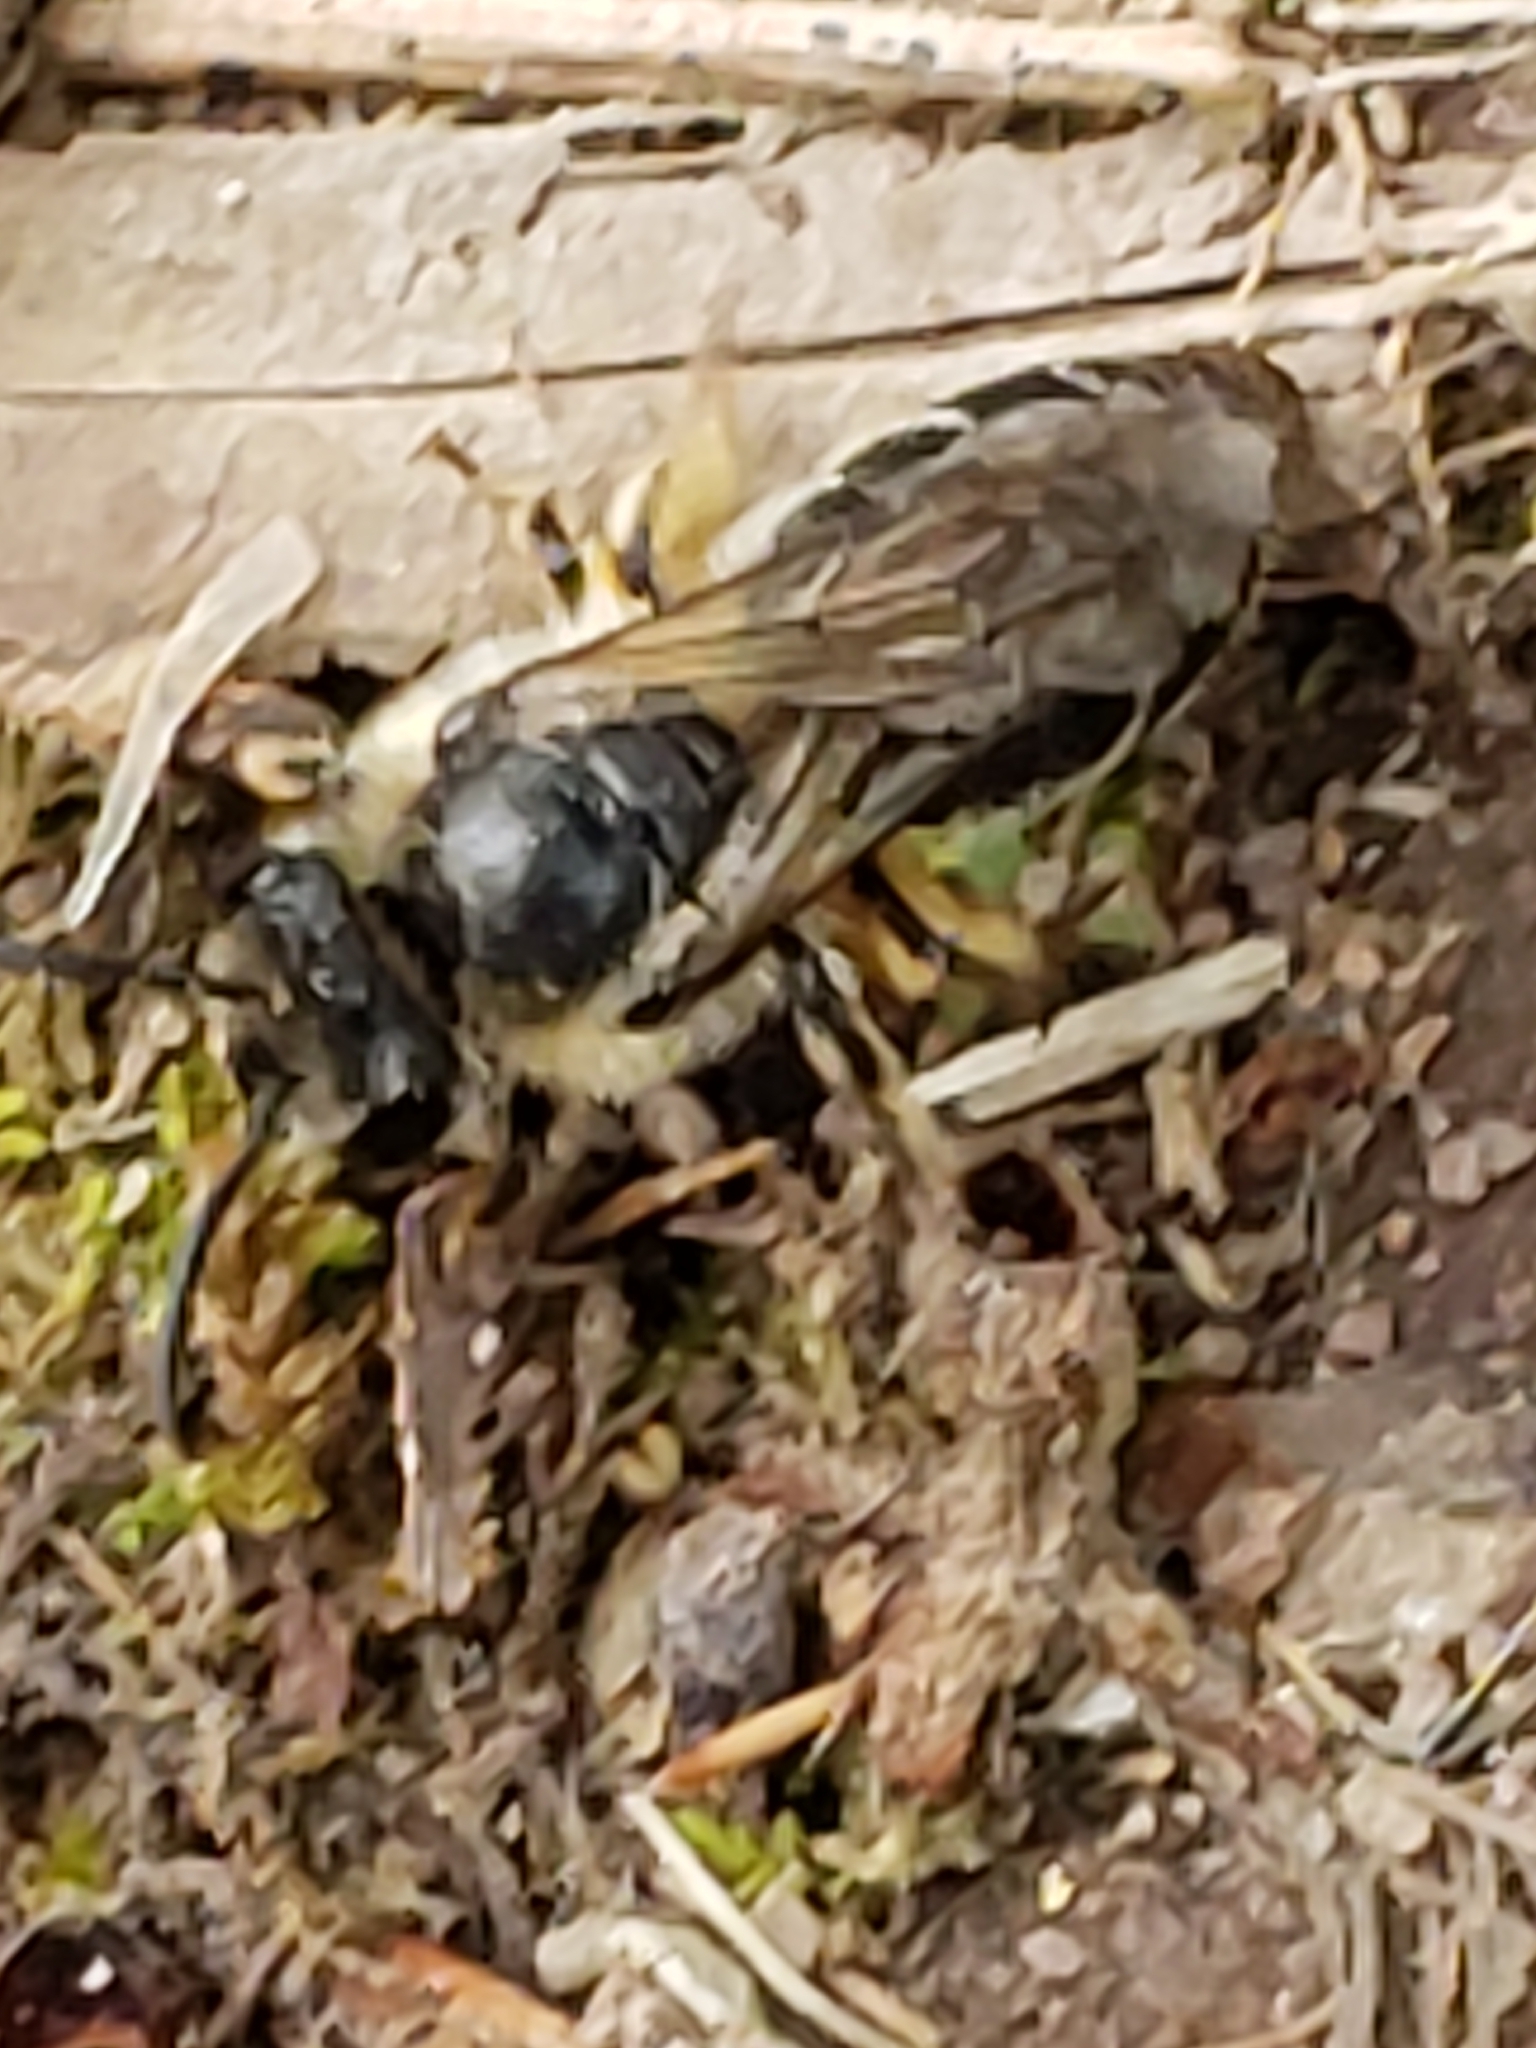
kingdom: Animalia
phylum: Arthropoda
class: Insecta
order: Hymenoptera
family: Colletidae
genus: Colletes
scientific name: Colletes inaequalis
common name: Unequal cellophane bee
